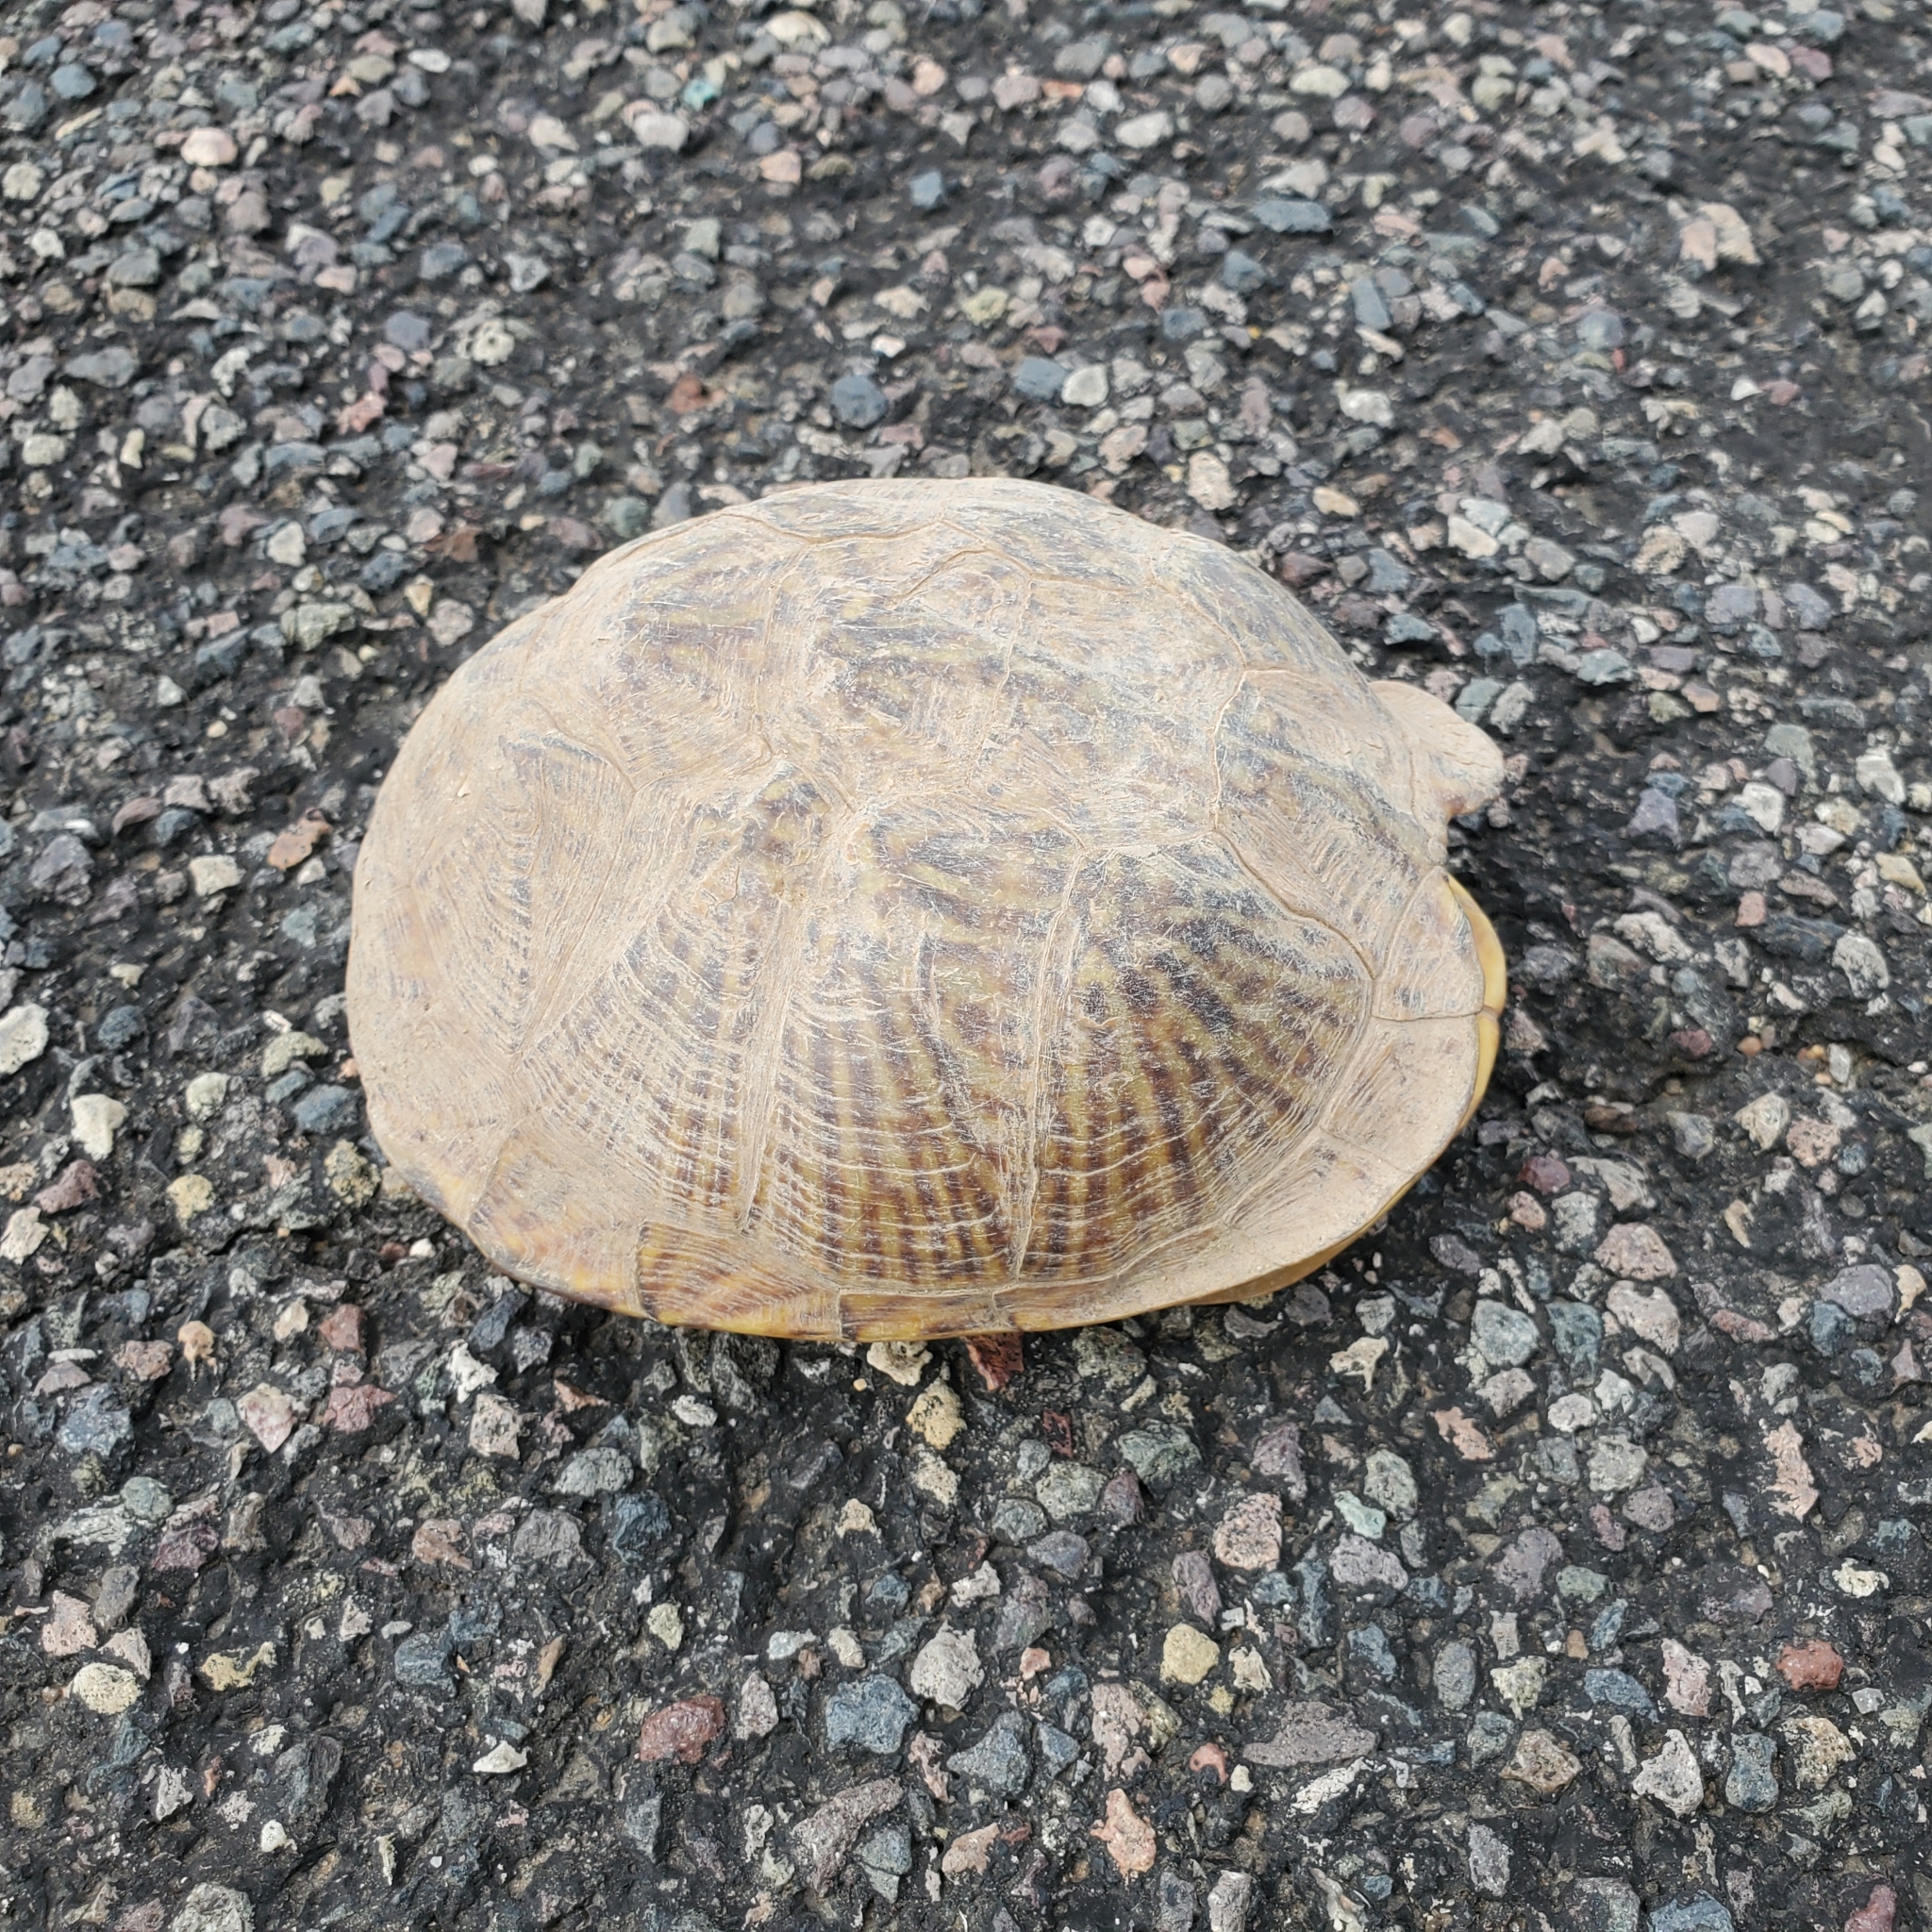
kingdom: Animalia
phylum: Chordata
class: Testudines
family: Emydidae
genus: Terrapene
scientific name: Terrapene ornata
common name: Western box turtle
